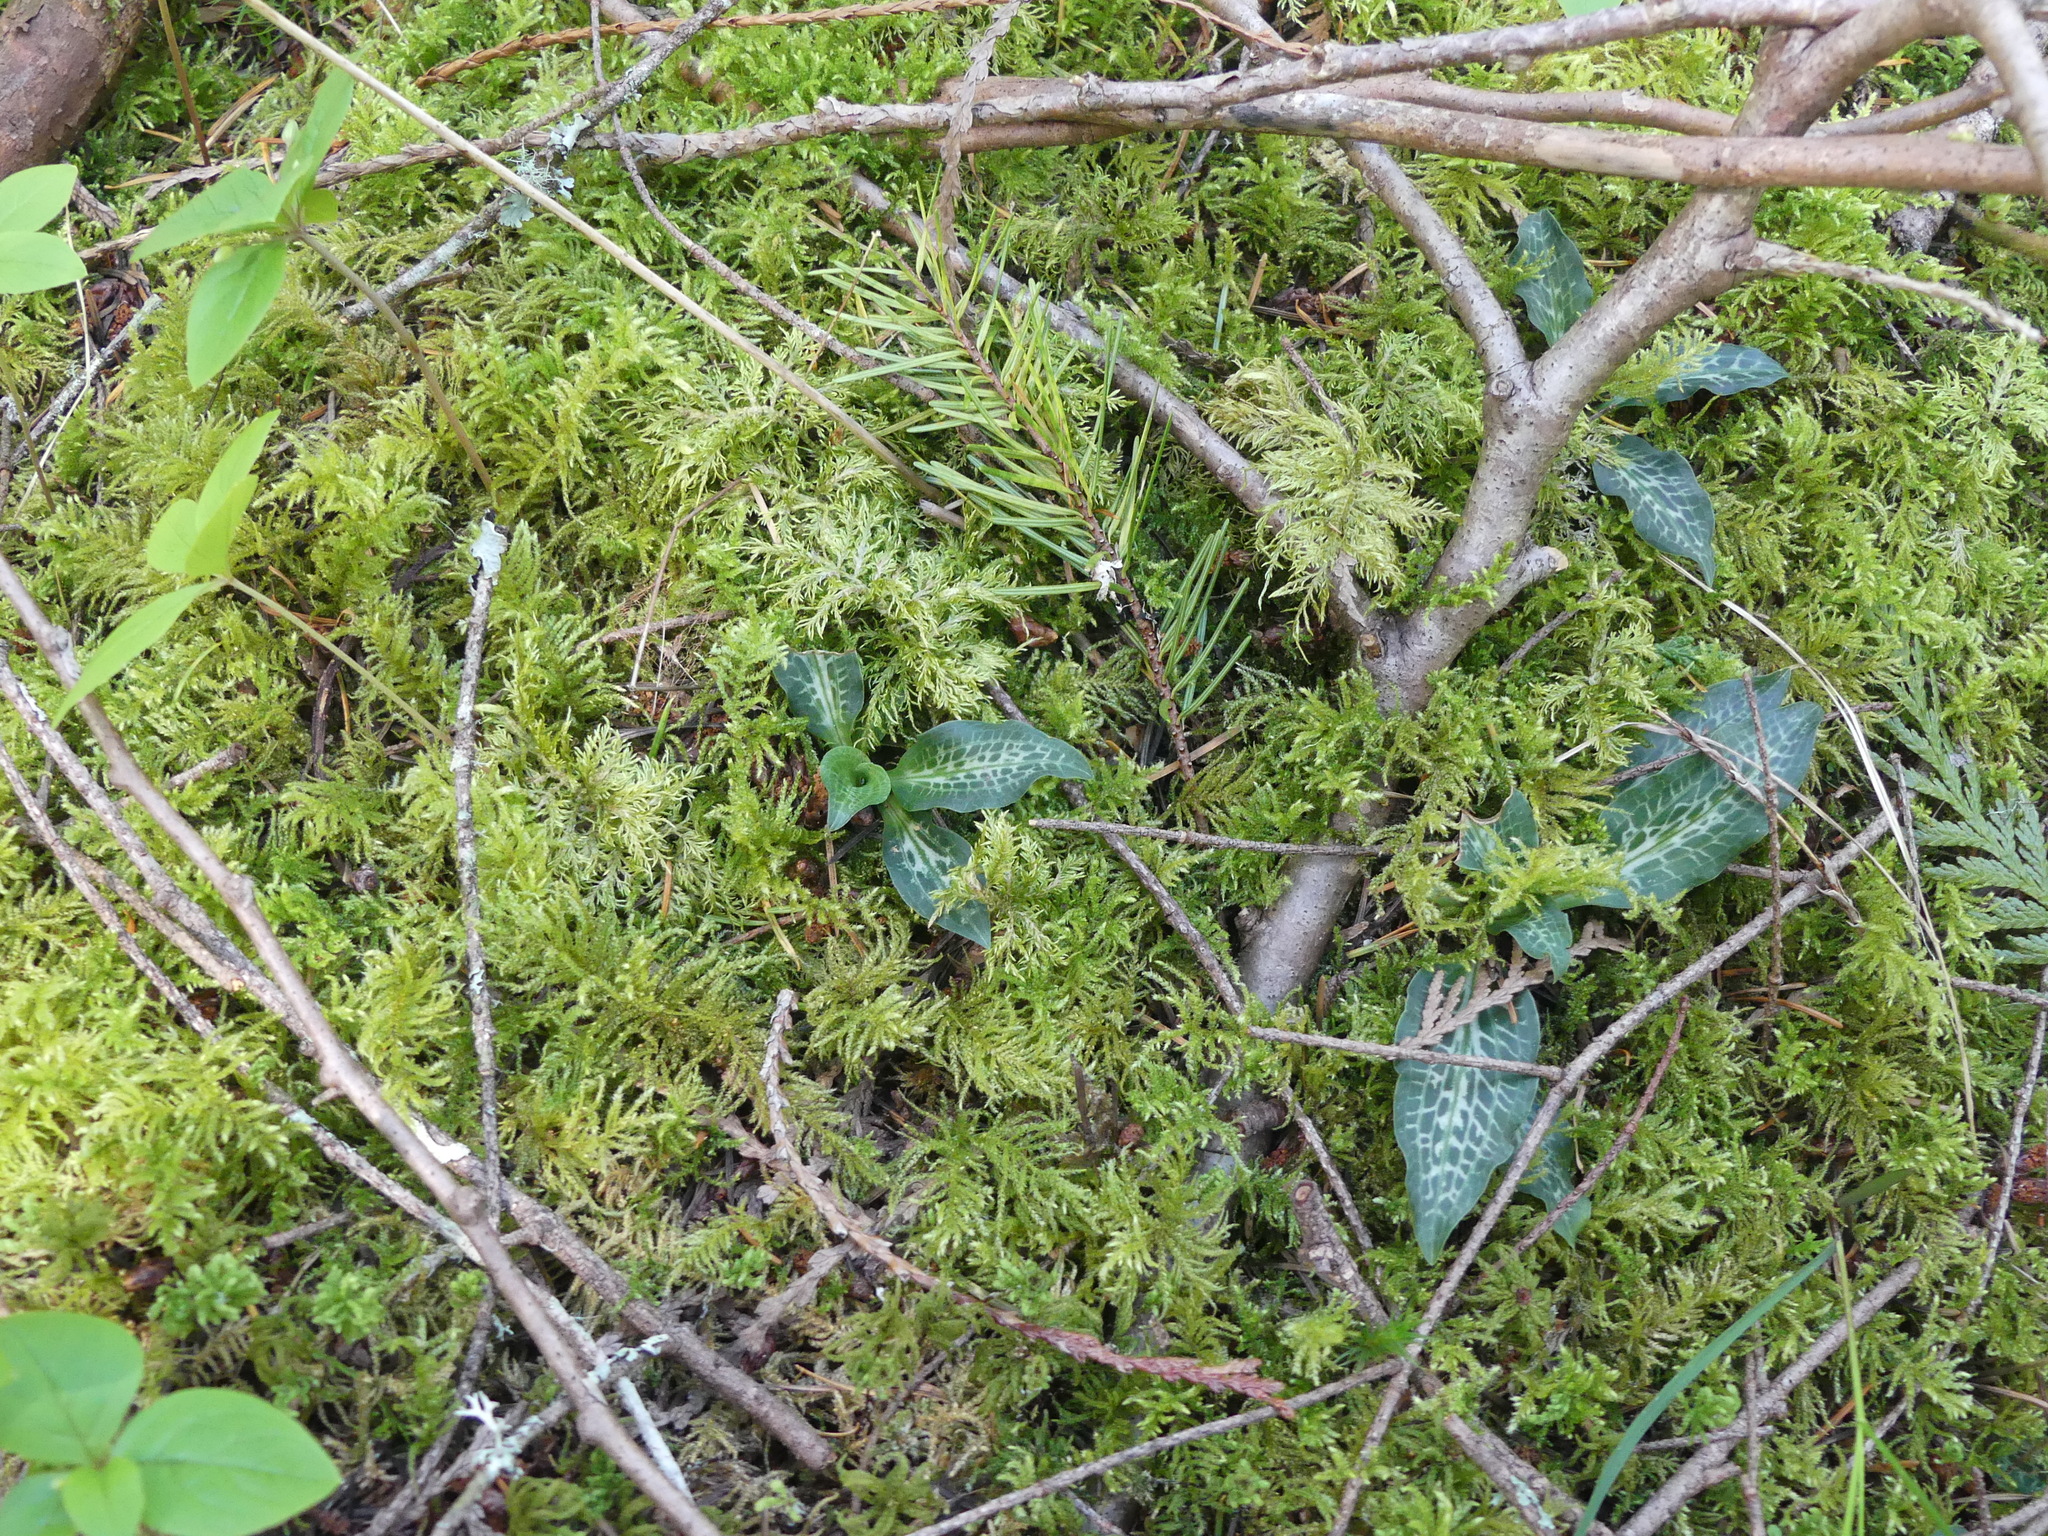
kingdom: Plantae
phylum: Tracheophyta
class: Liliopsida
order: Asparagales
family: Orchidaceae
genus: Goodyera
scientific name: Goodyera oblongifolia
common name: Giant rattlesnake-plantain
